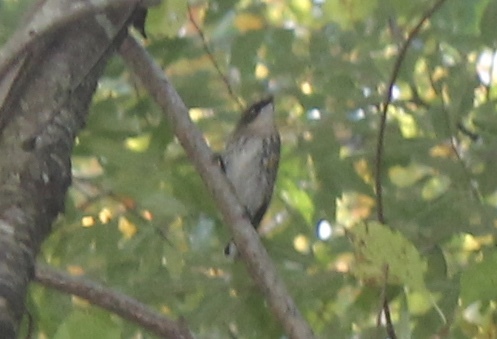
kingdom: Animalia
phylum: Chordata
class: Aves
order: Passeriformes
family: Parulidae
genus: Setophaga
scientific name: Setophaga coronata
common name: Myrtle warbler
